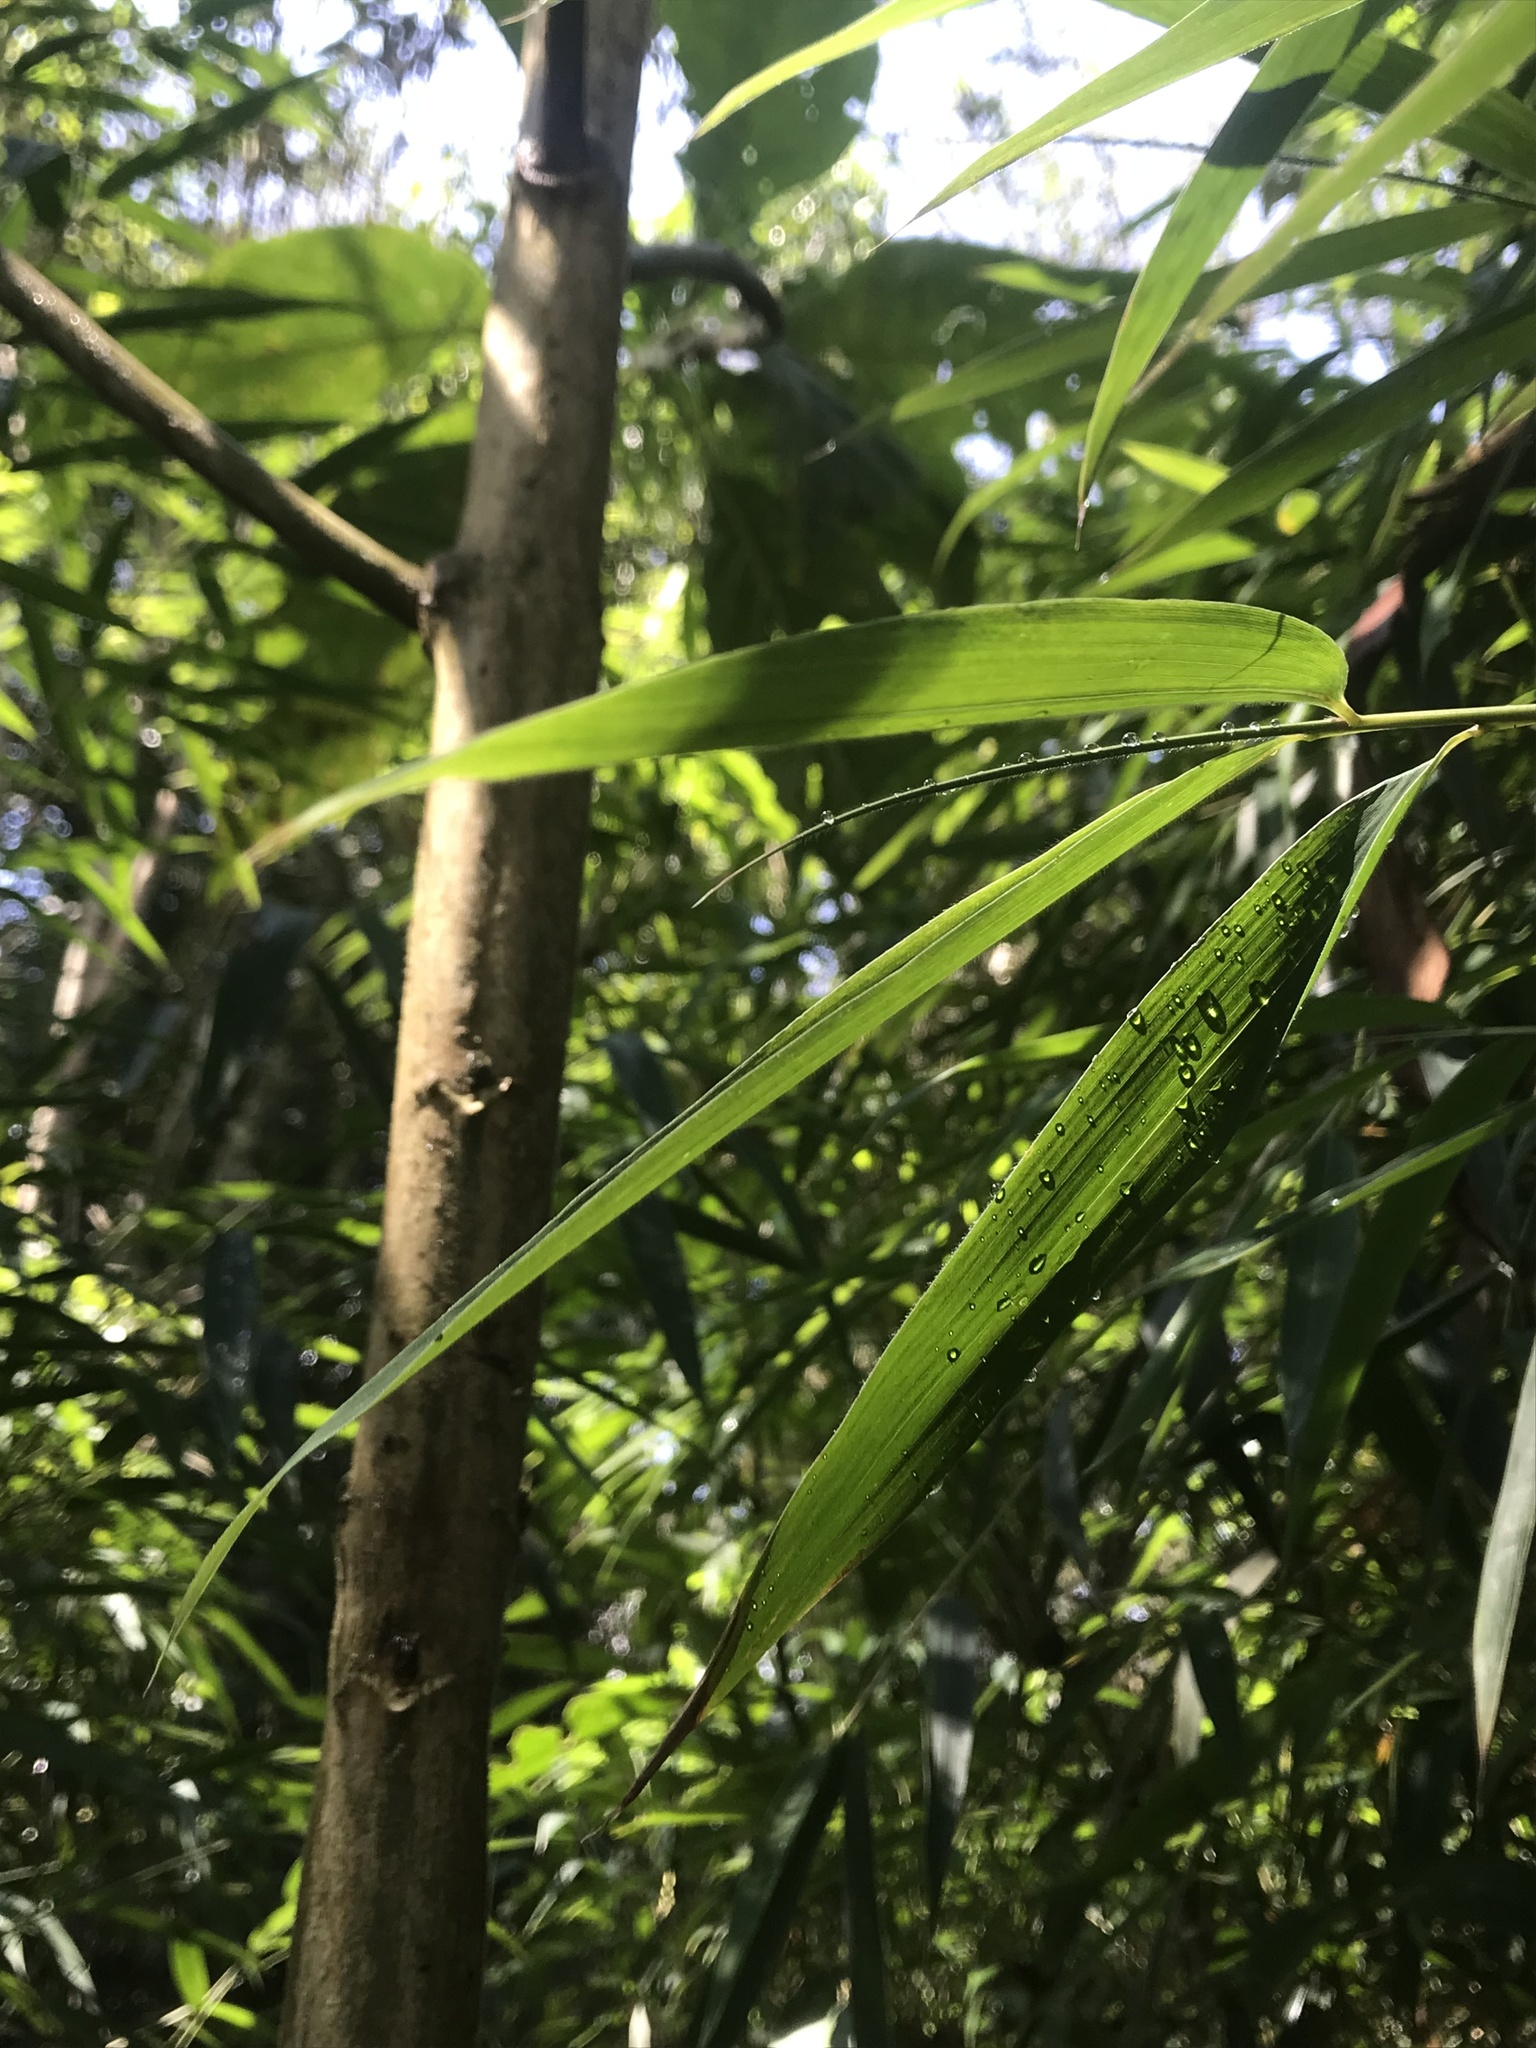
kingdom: Plantae
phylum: Tracheophyta
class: Liliopsida
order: Poales
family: Poaceae
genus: Chusquea
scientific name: Chusquea scandens
